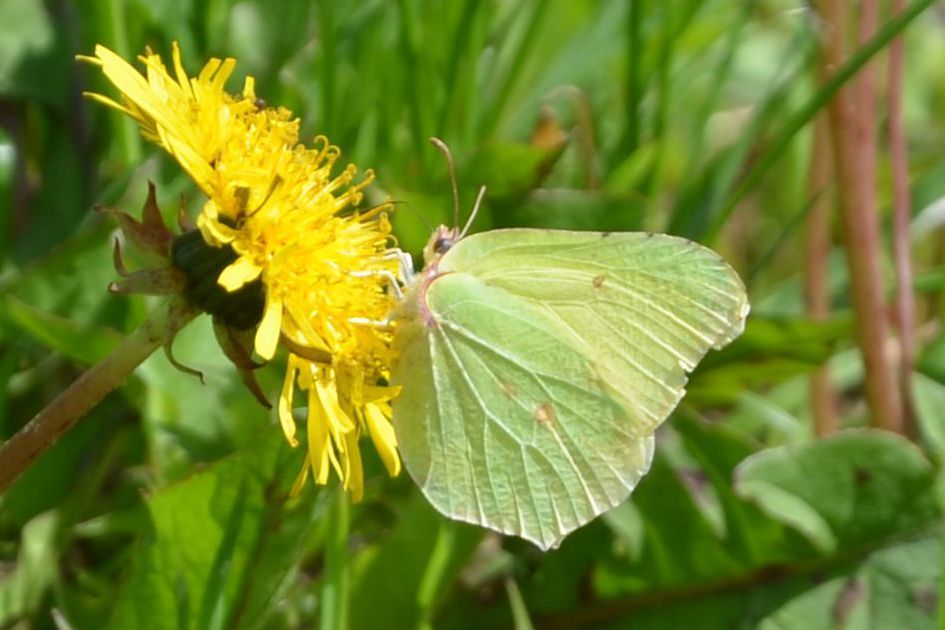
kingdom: Animalia
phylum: Arthropoda
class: Insecta
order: Lepidoptera
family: Pieridae
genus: Gonepteryx
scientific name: Gonepteryx rhamni
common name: Brimstone
